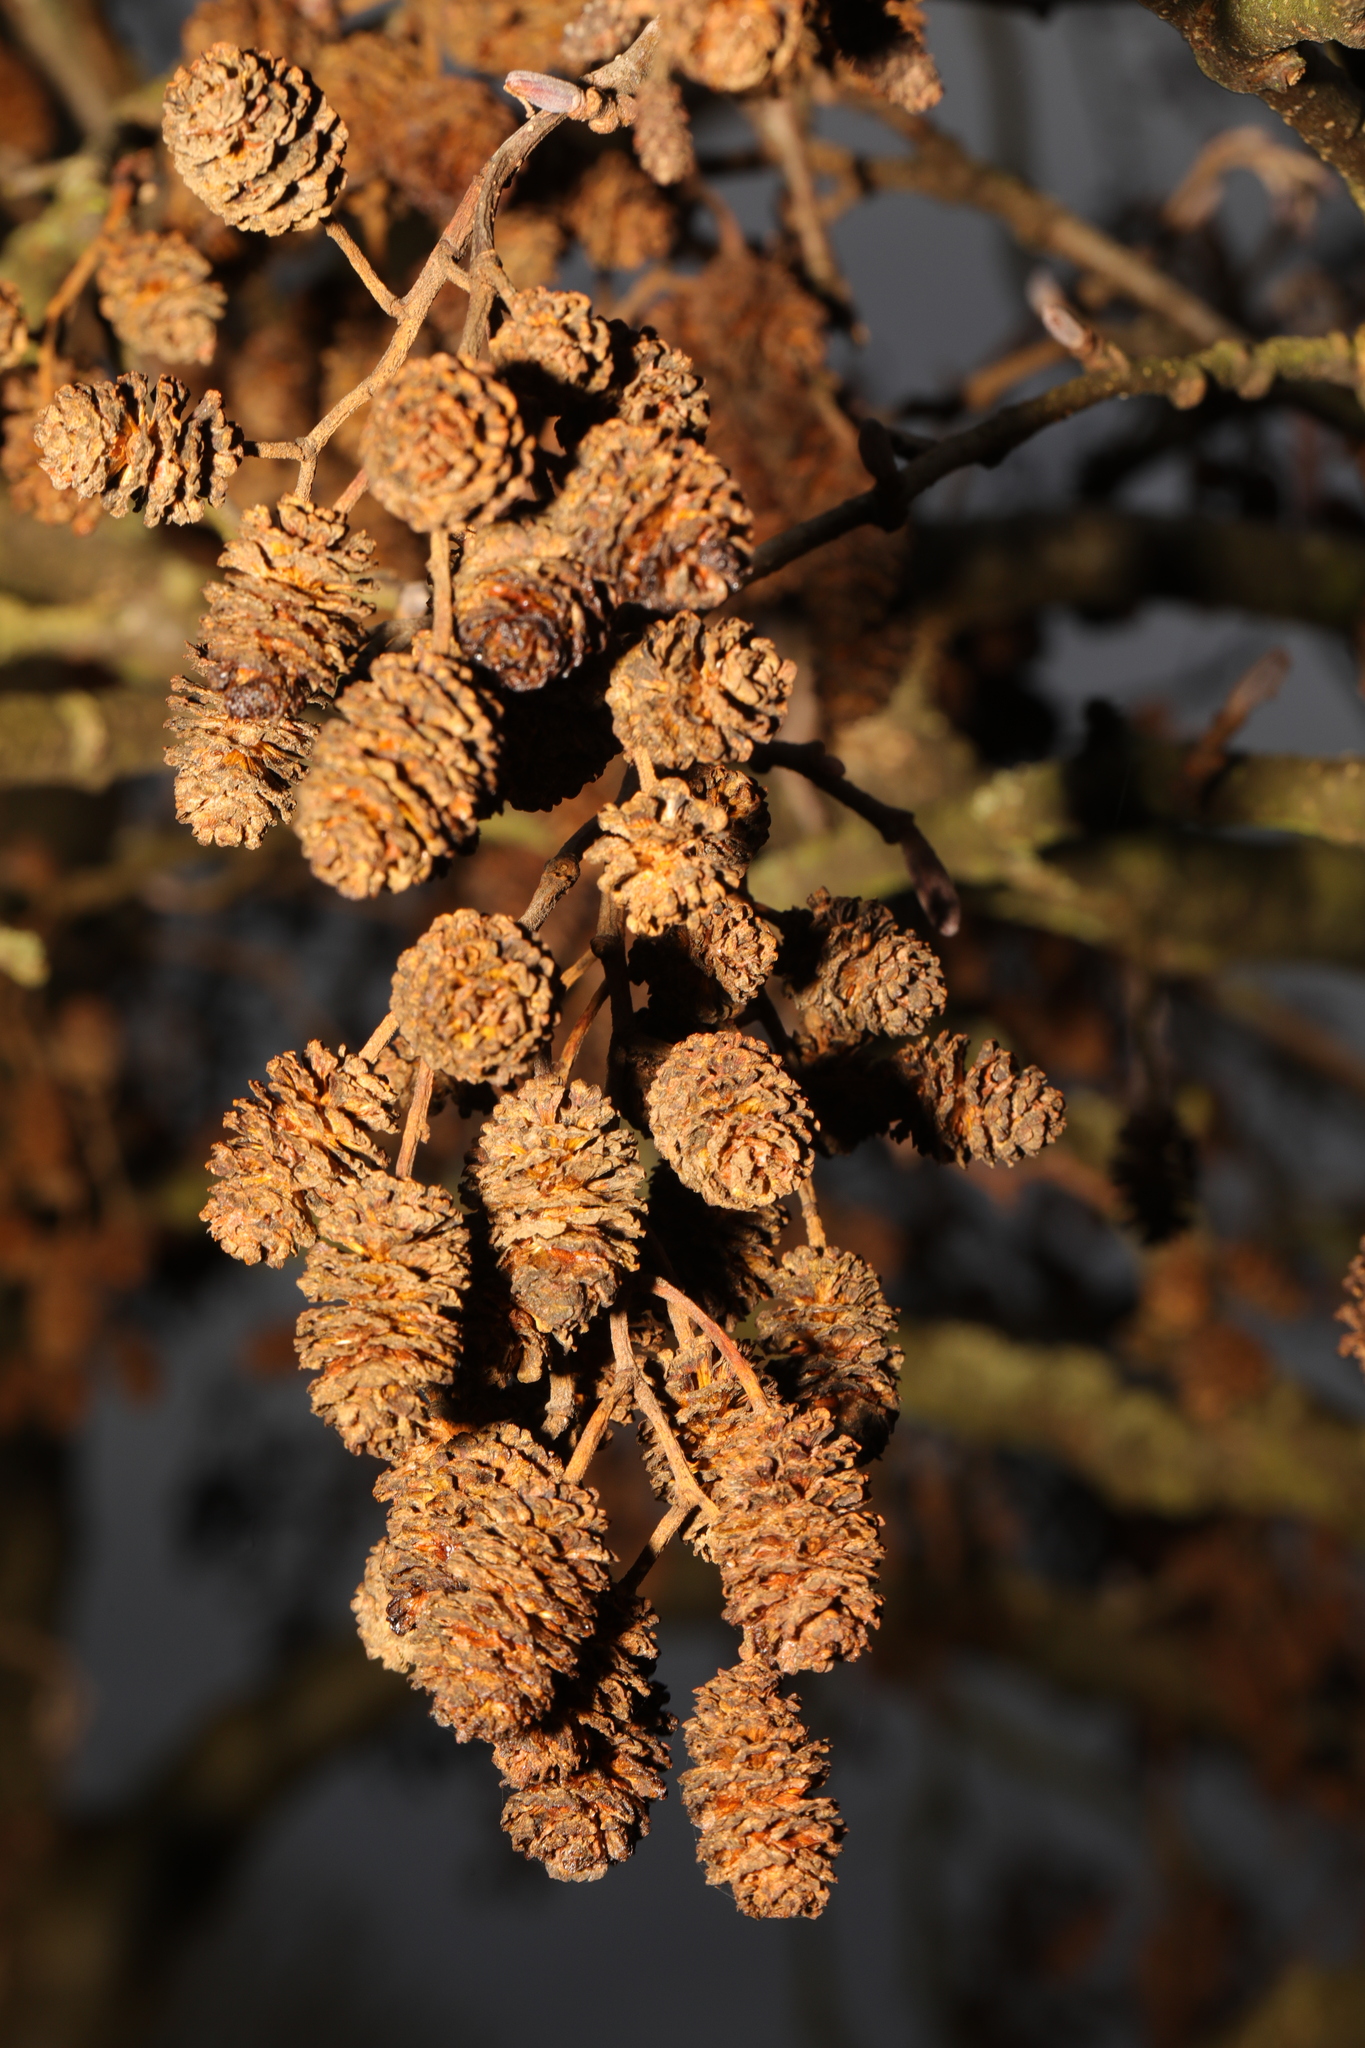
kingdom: Plantae
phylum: Tracheophyta
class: Magnoliopsida
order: Fagales
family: Betulaceae
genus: Alnus
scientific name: Alnus glutinosa
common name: Black alder
